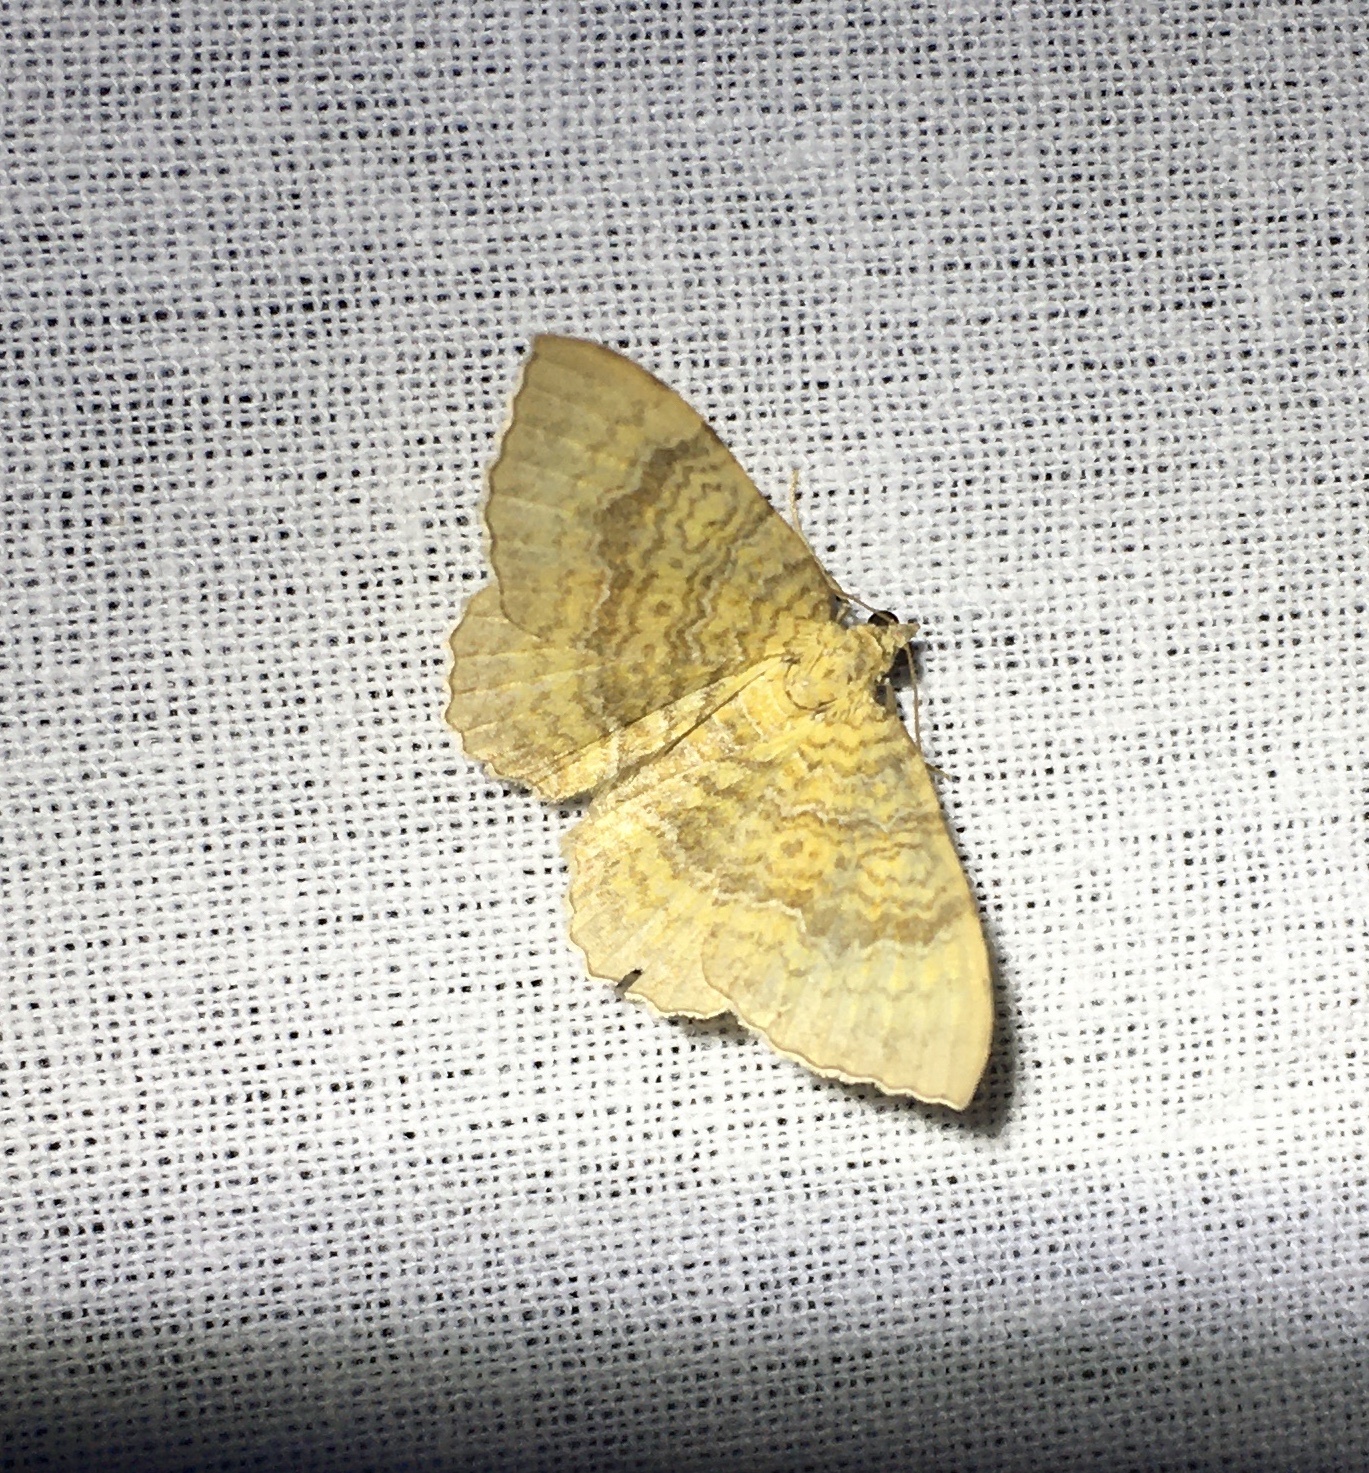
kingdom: Animalia
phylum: Arthropoda
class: Insecta
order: Lepidoptera
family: Geometridae
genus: Camptogramma
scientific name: Camptogramma bilineata
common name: Yellow shell
